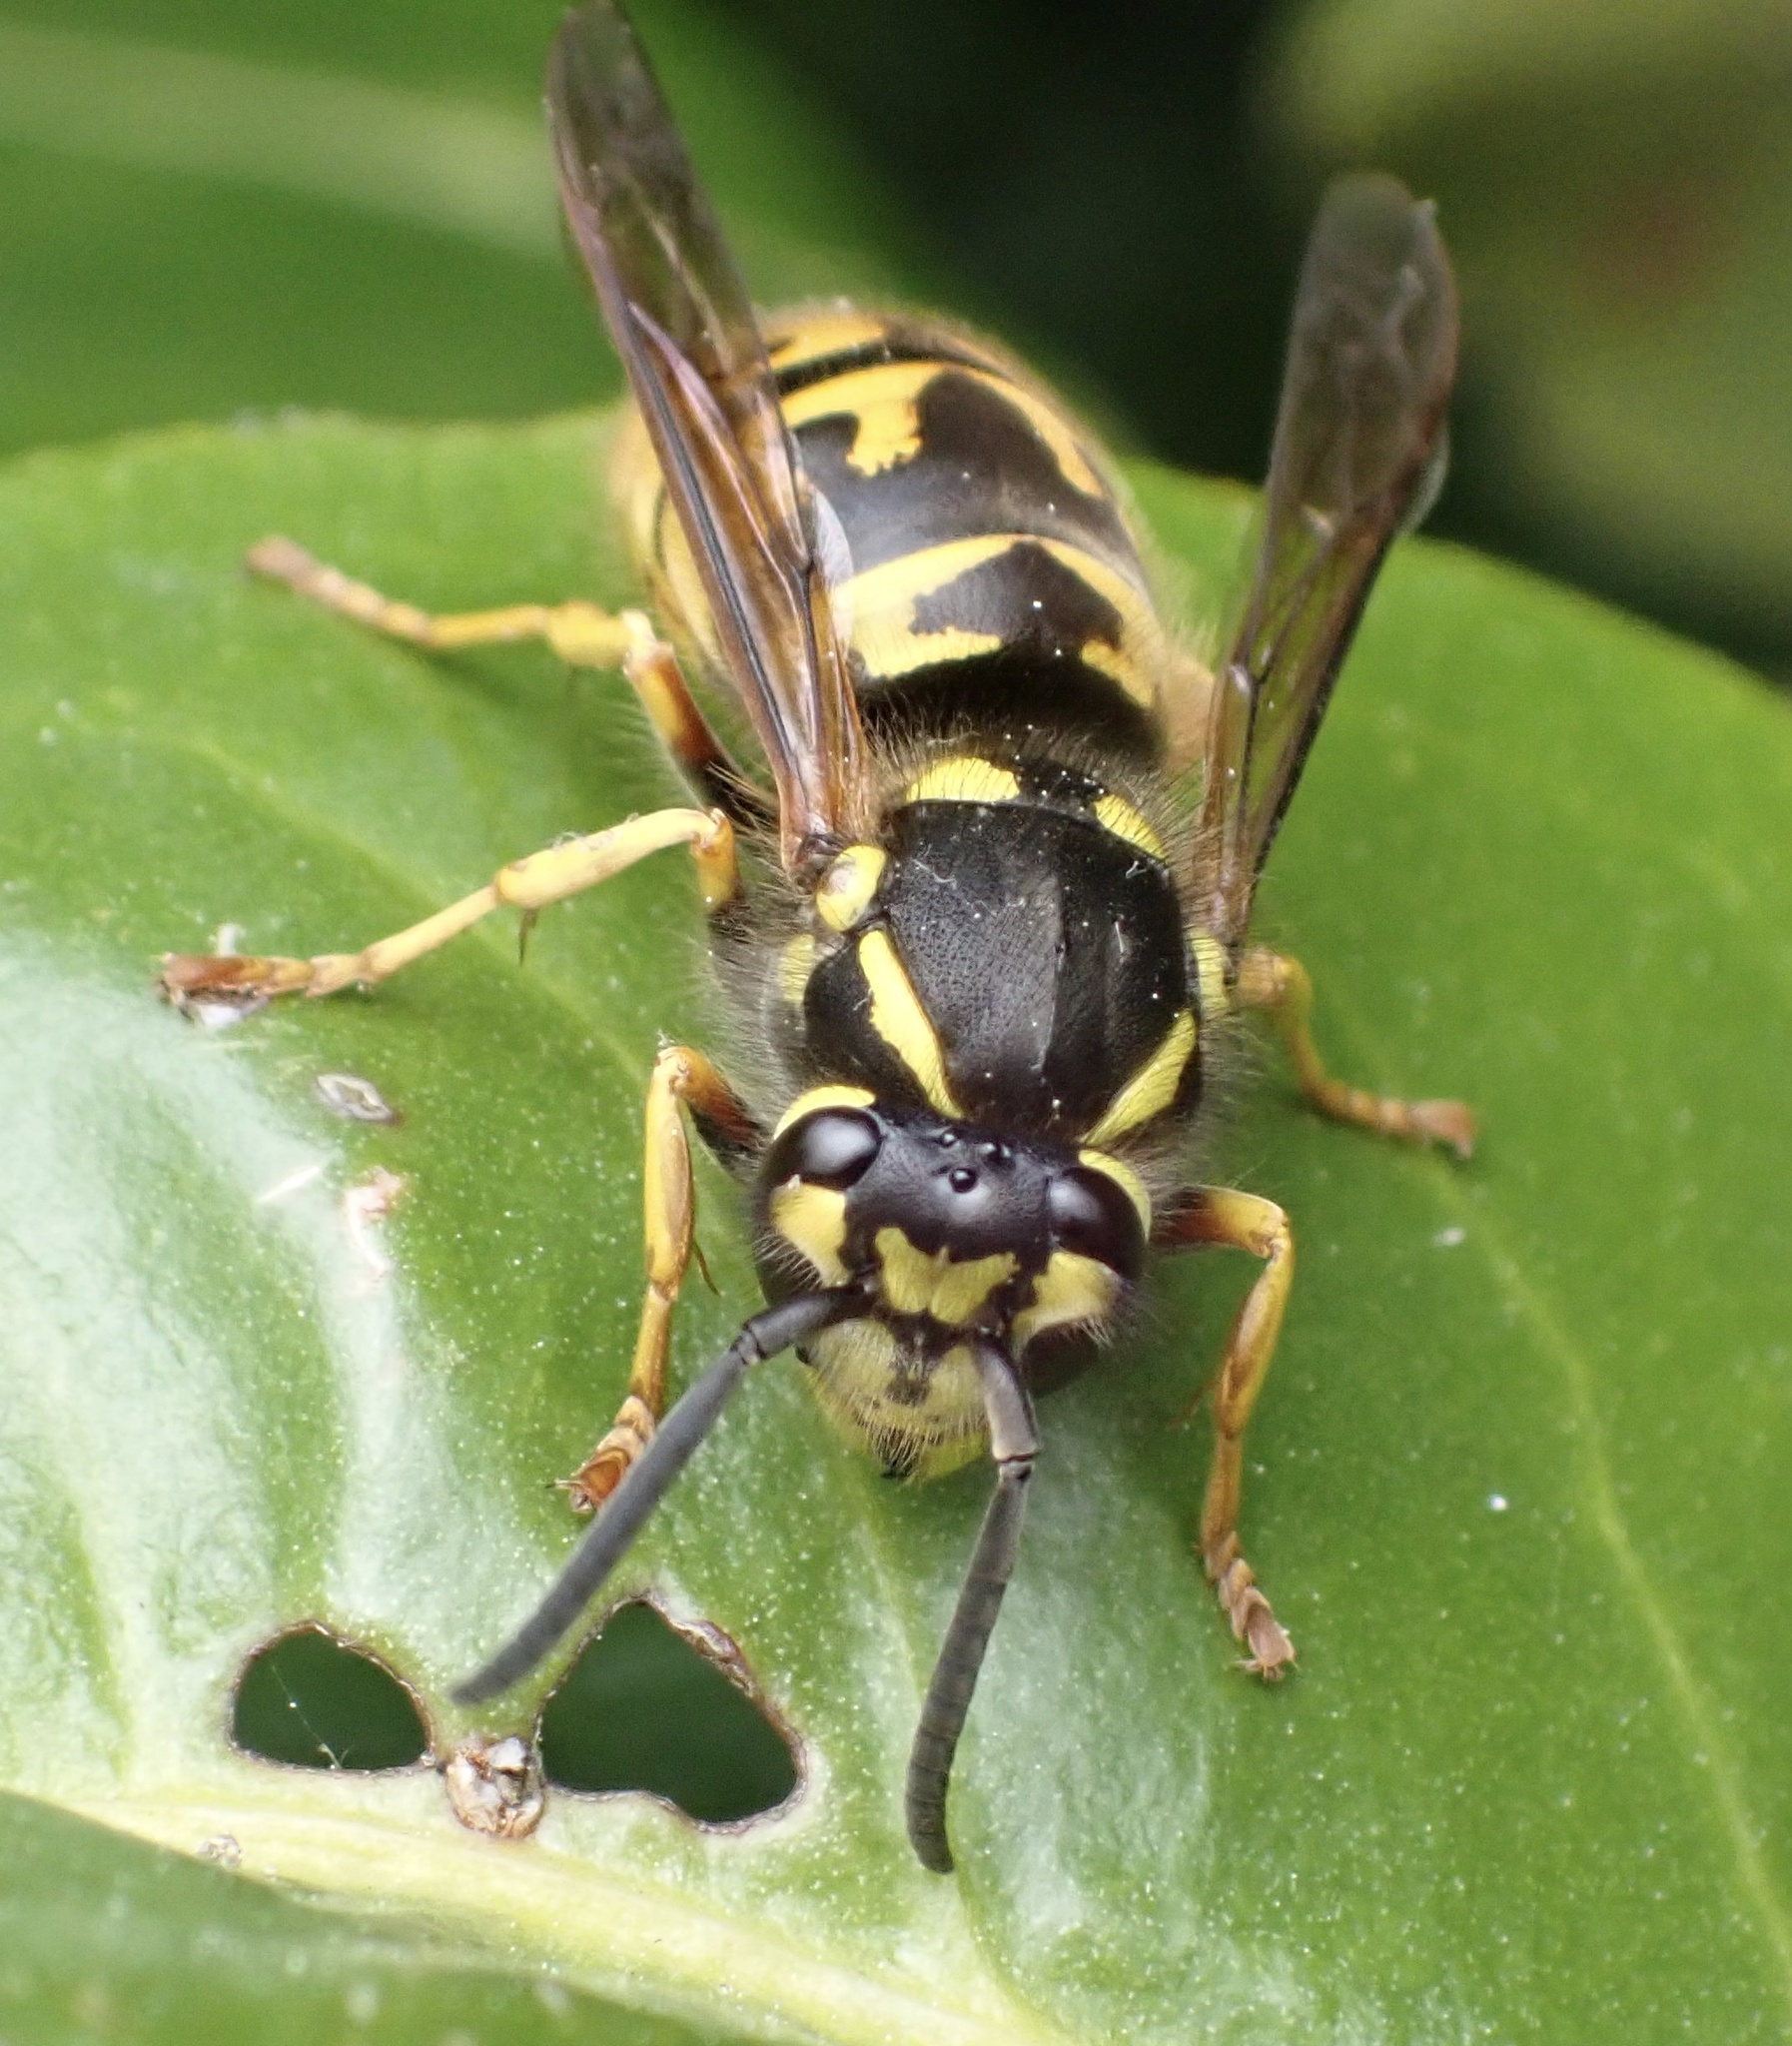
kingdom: Animalia
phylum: Arthropoda
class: Insecta
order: Hymenoptera
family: Vespidae
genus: Vespula
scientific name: Vespula germanica
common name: German wasp
